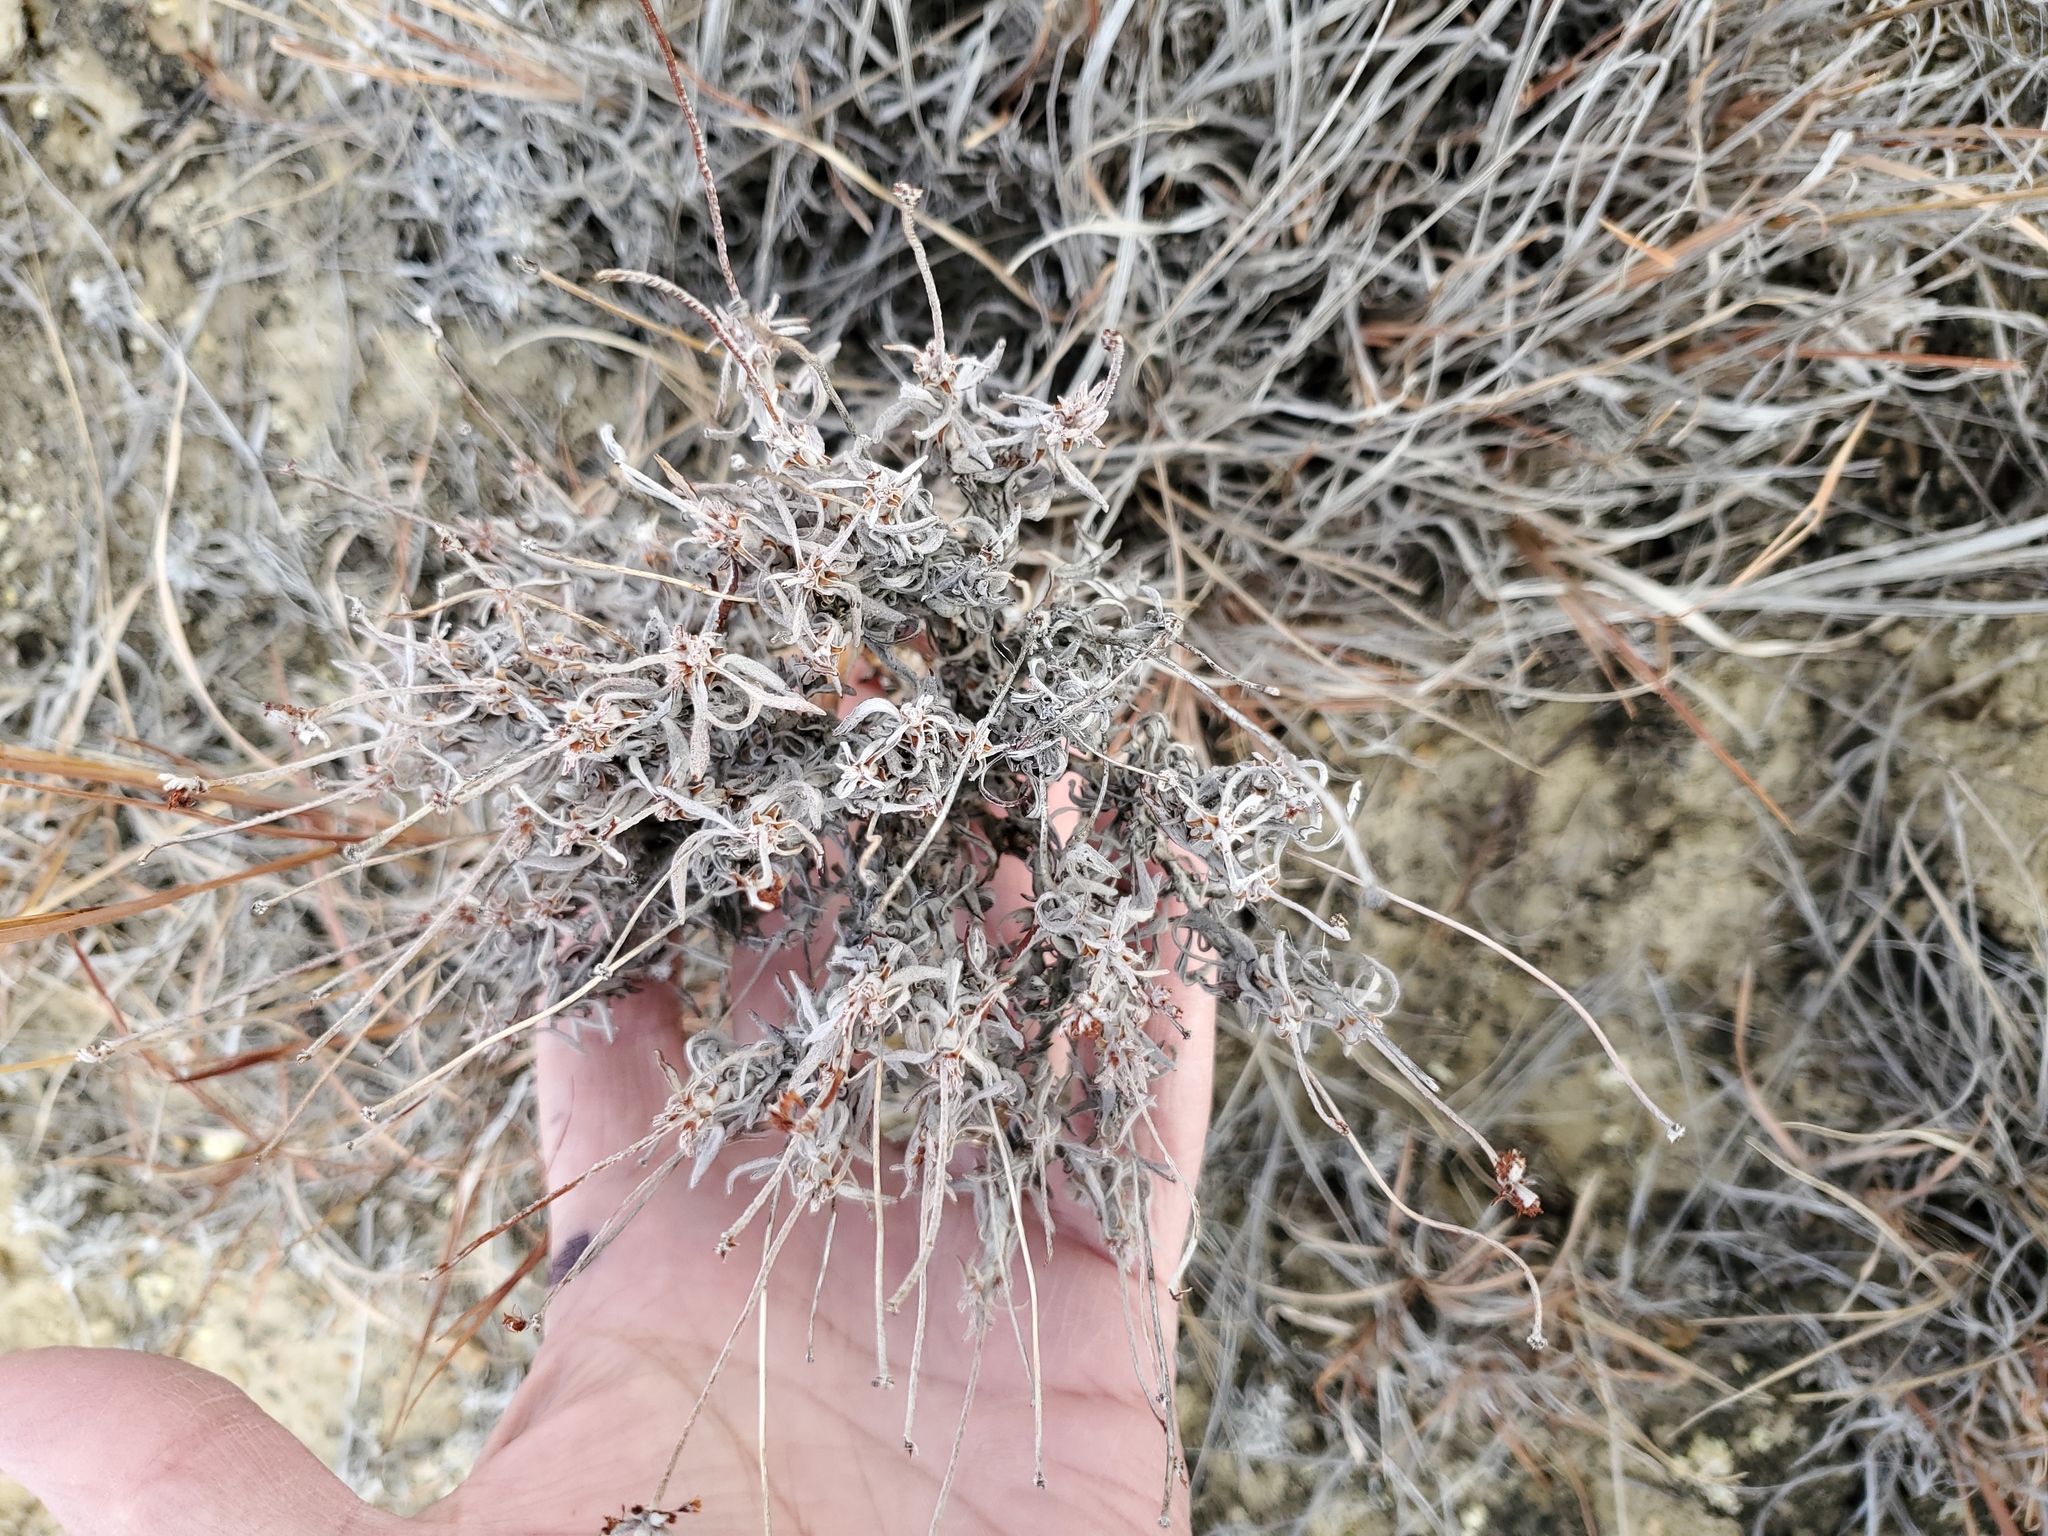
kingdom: Plantae
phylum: Tracheophyta
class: Magnoliopsida
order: Caryophyllales
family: Polygonaceae
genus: Eriogonum
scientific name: Eriogonum pauciflorum
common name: Few-flower wild buckwheat
